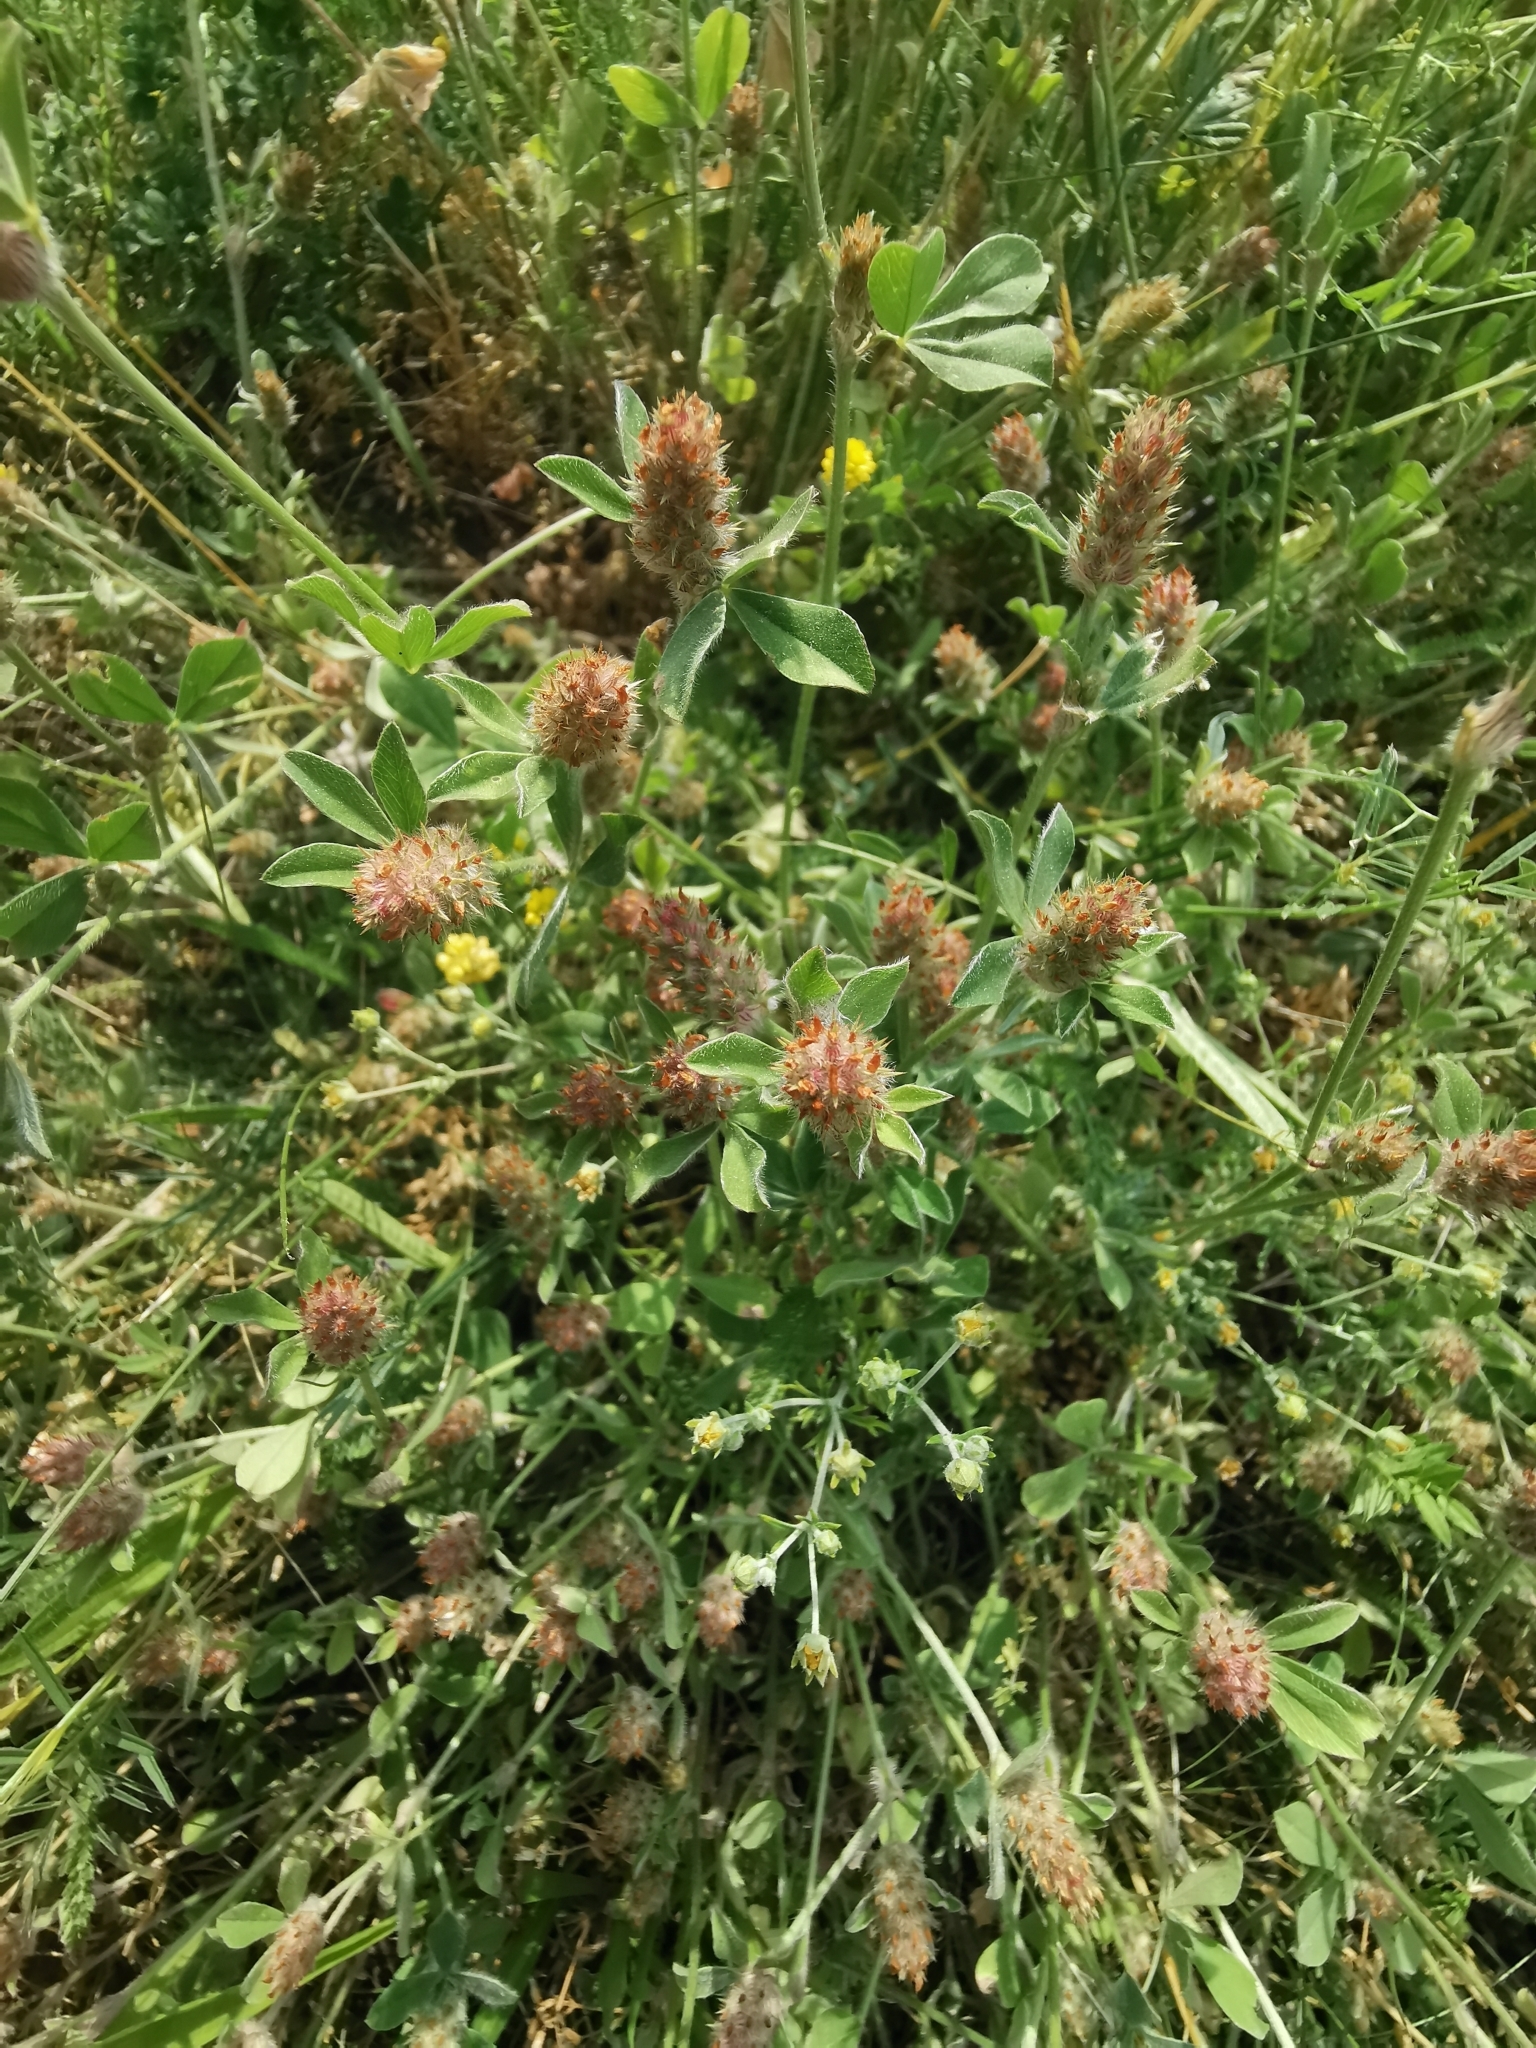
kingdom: Plantae
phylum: Tracheophyta
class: Magnoliopsida
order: Fabales
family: Fabaceae
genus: Trifolium
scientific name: Trifolium striatum
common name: Knotted clover
